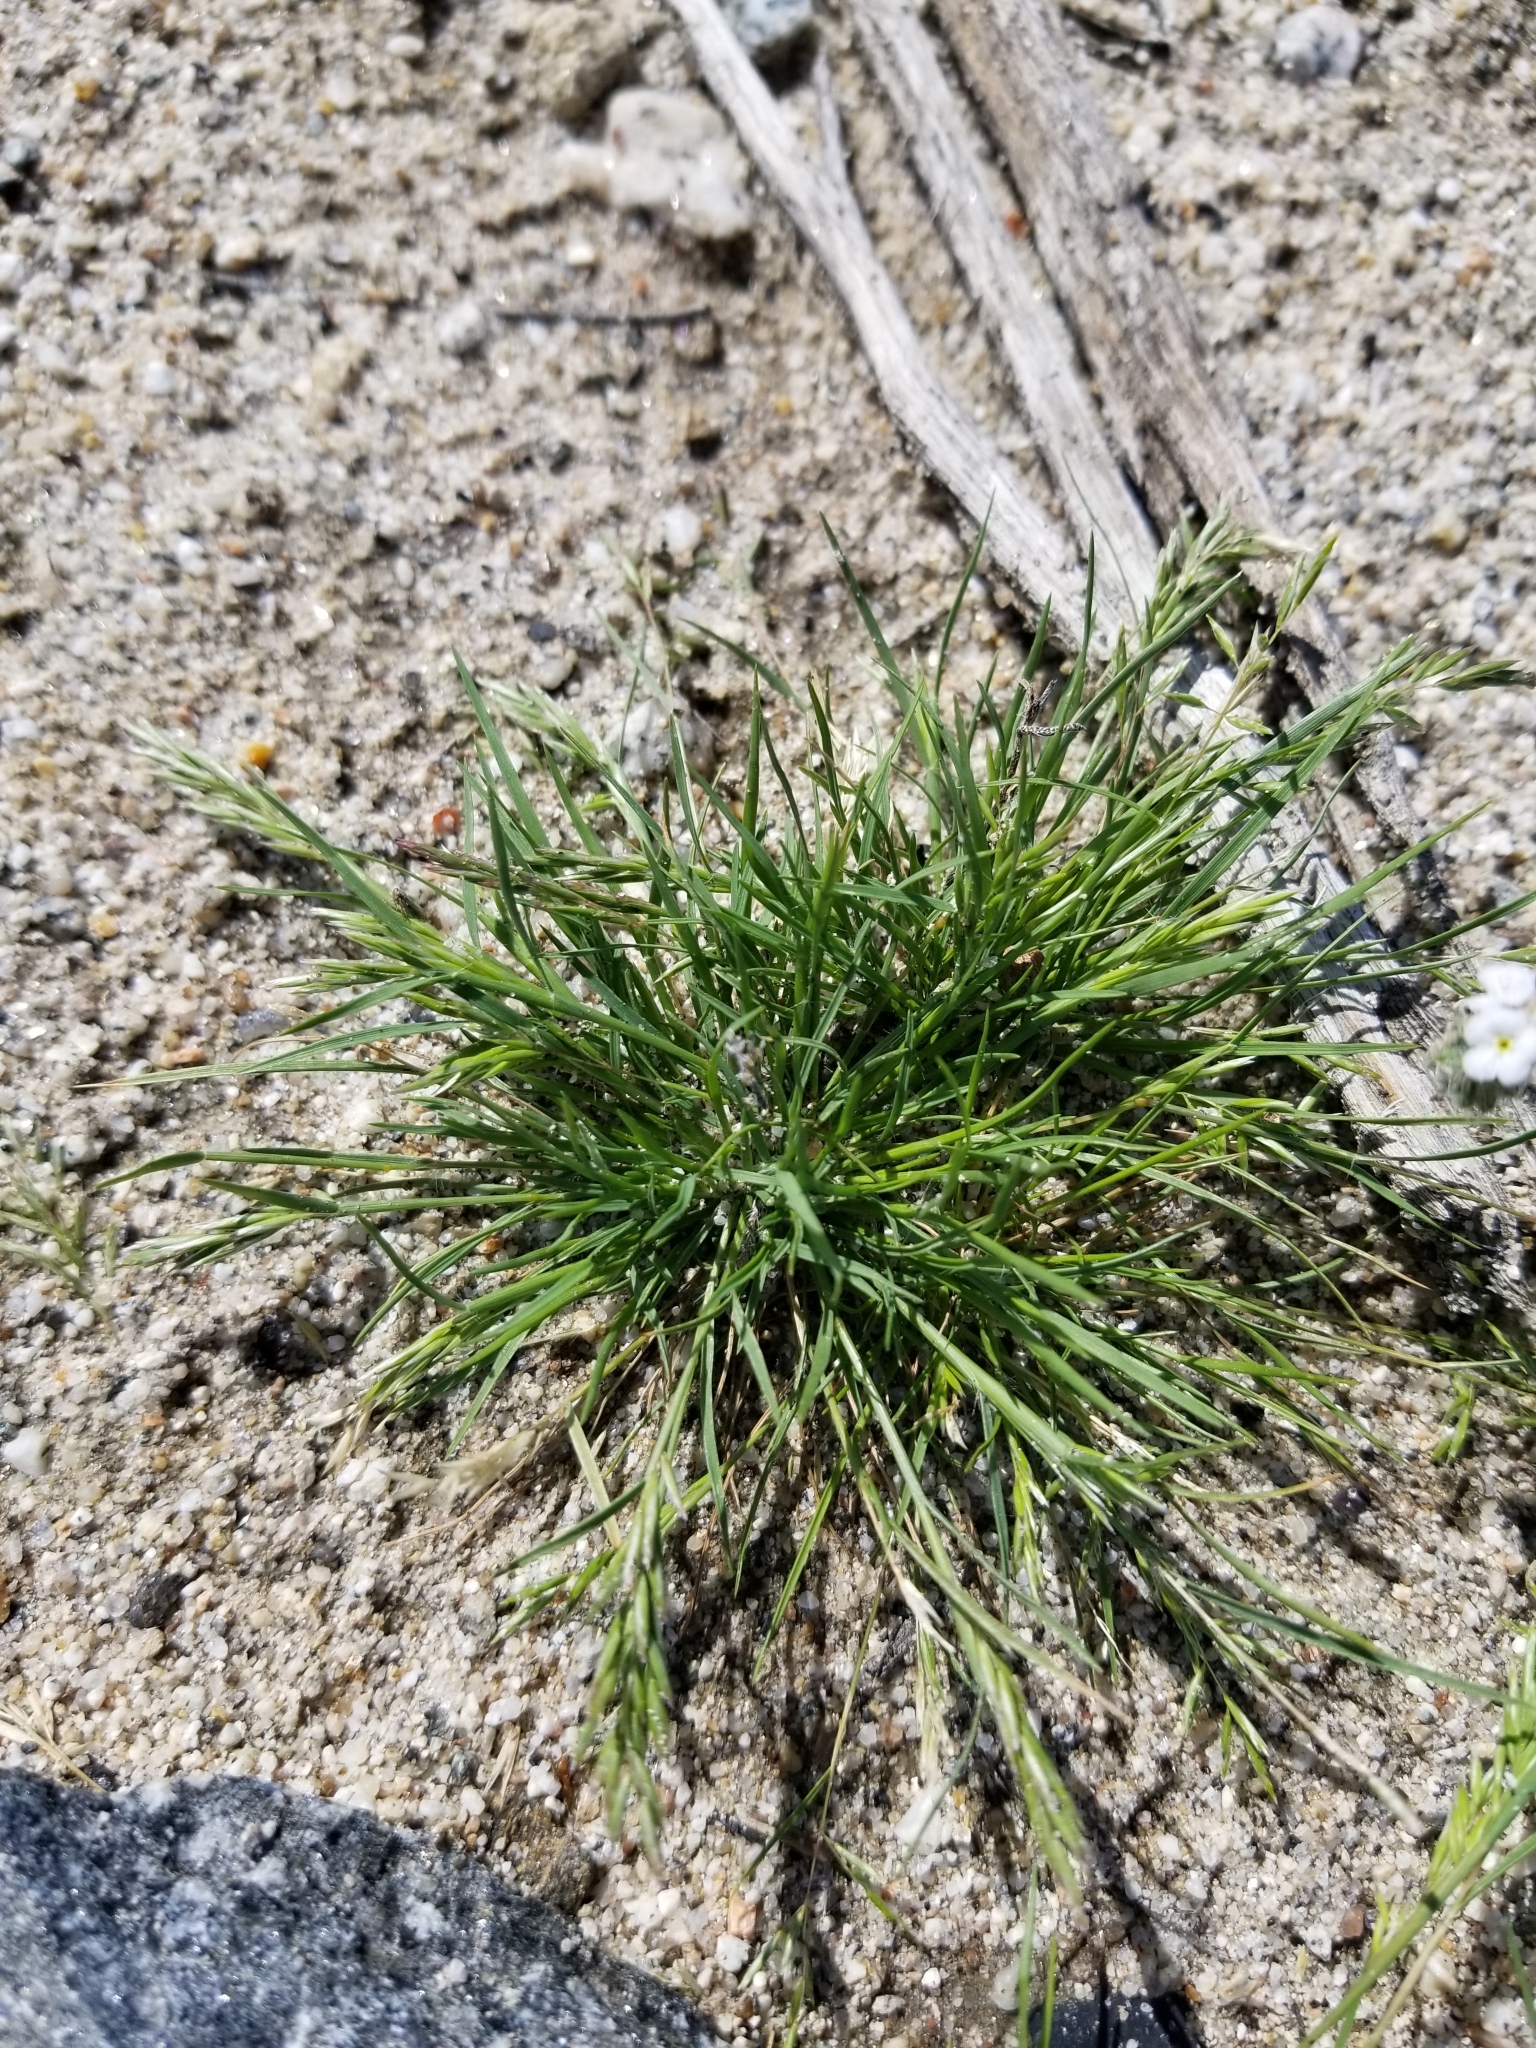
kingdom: Plantae
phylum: Tracheophyta
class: Liliopsida
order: Poales
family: Poaceae
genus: Schismus
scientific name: Schismus barbatus
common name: Kelch-grass
